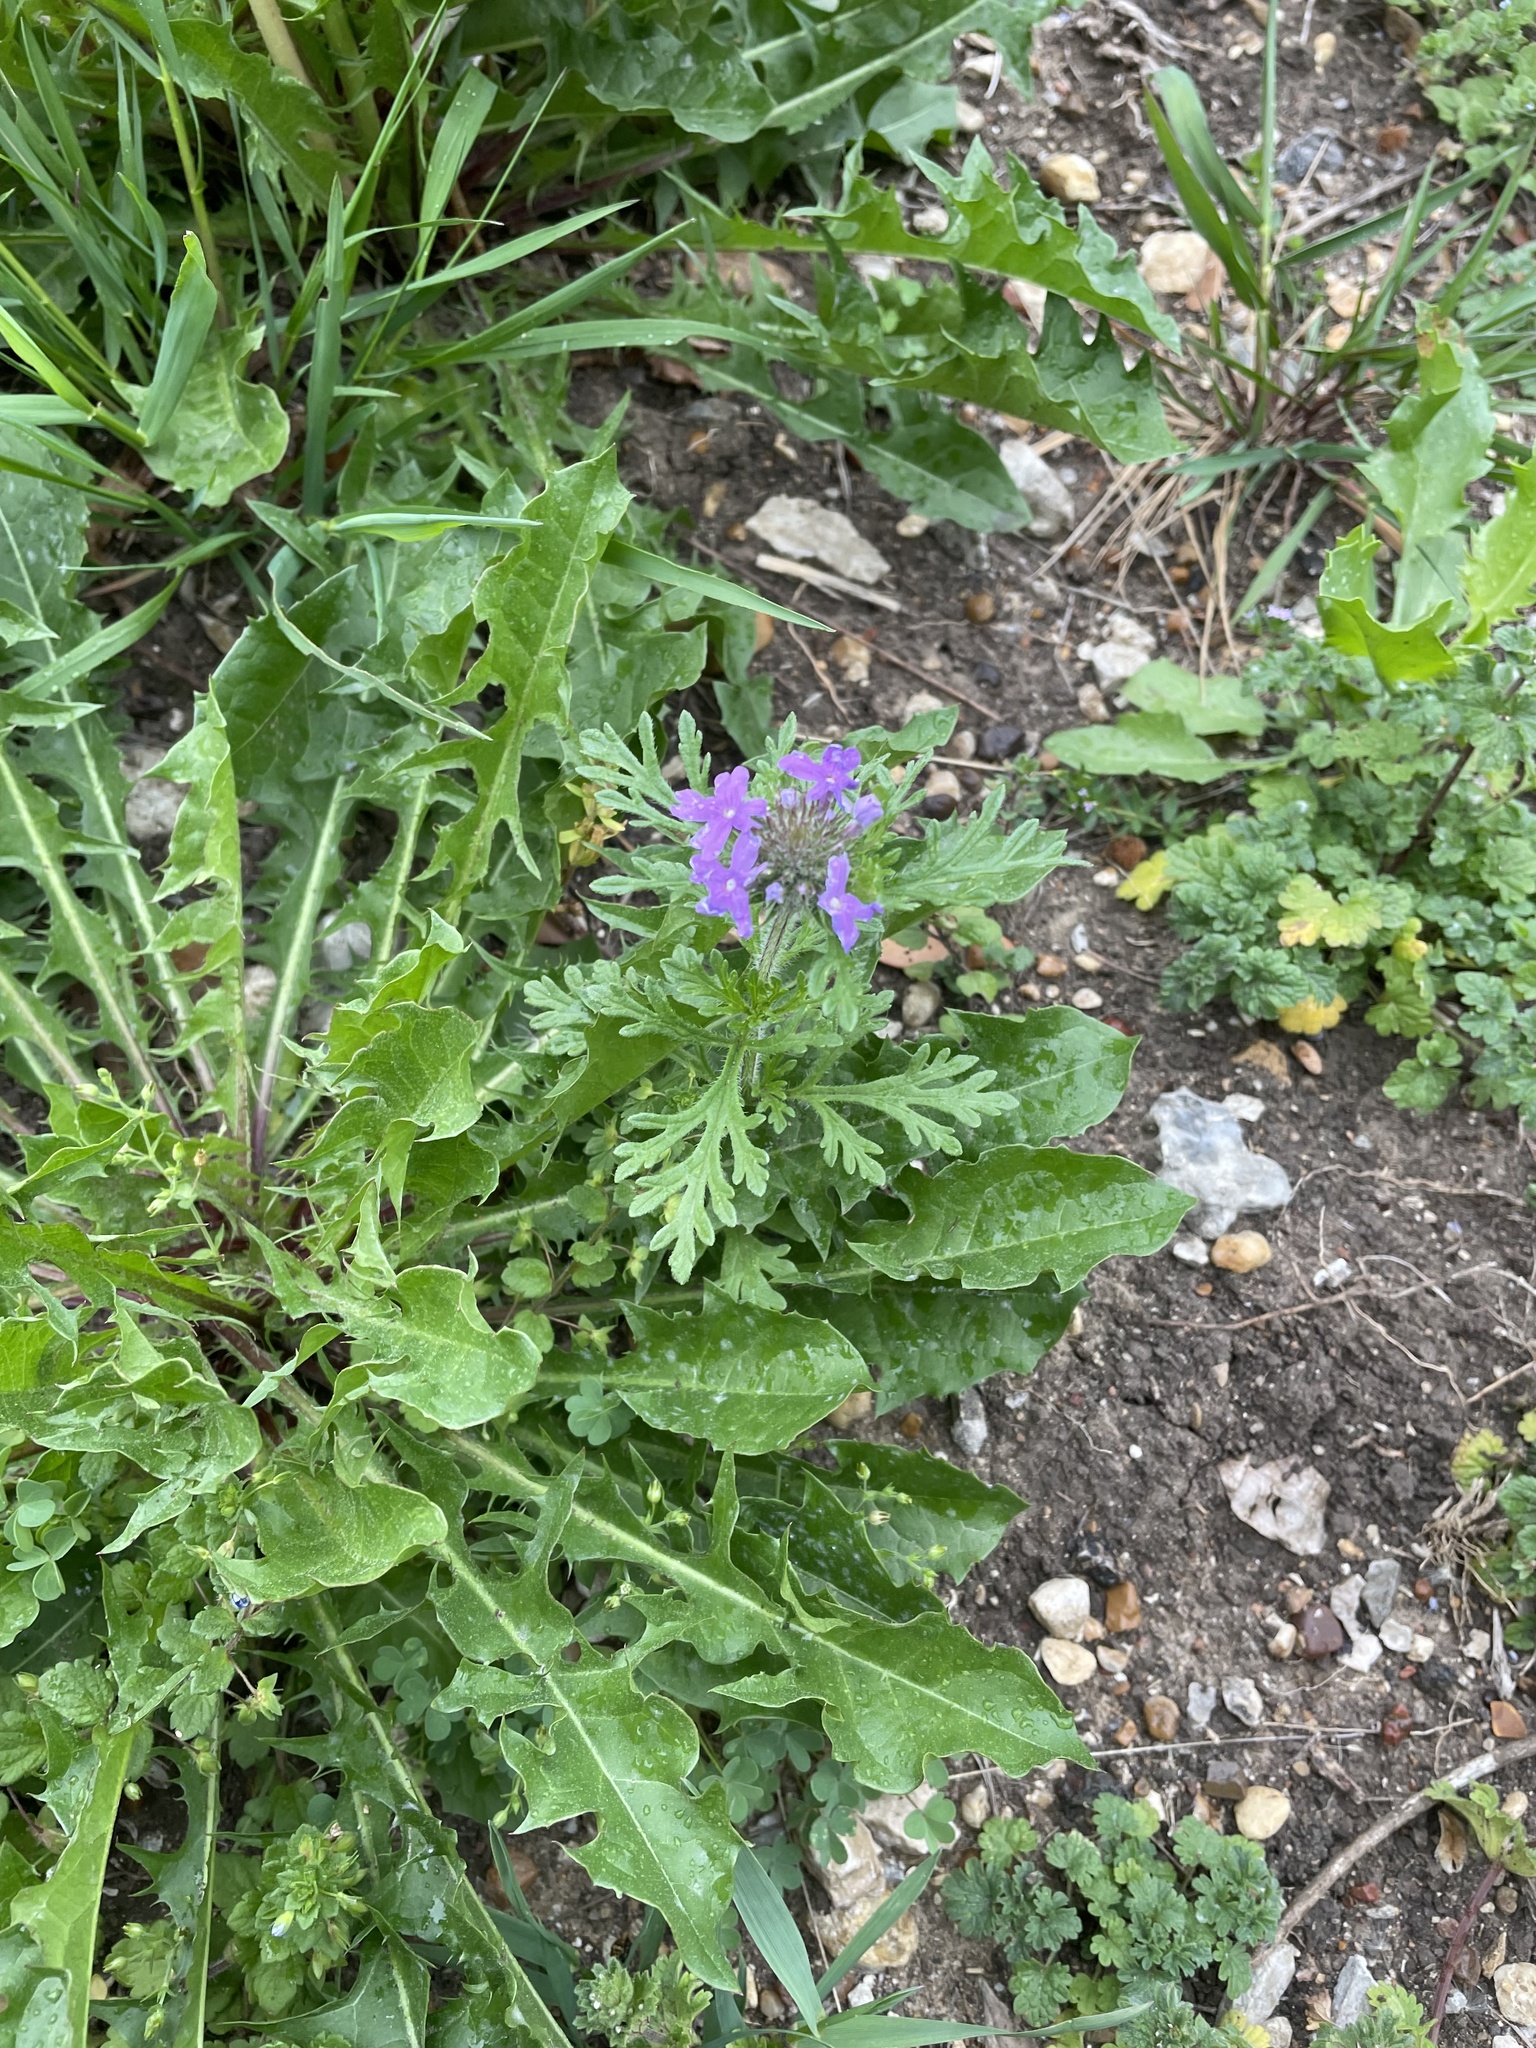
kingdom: Plantae
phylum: Tracheophyta
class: Magnoliopsida
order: Lamiales
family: Verbenaceae
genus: Verbena
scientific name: Verbena bipinnatifida
